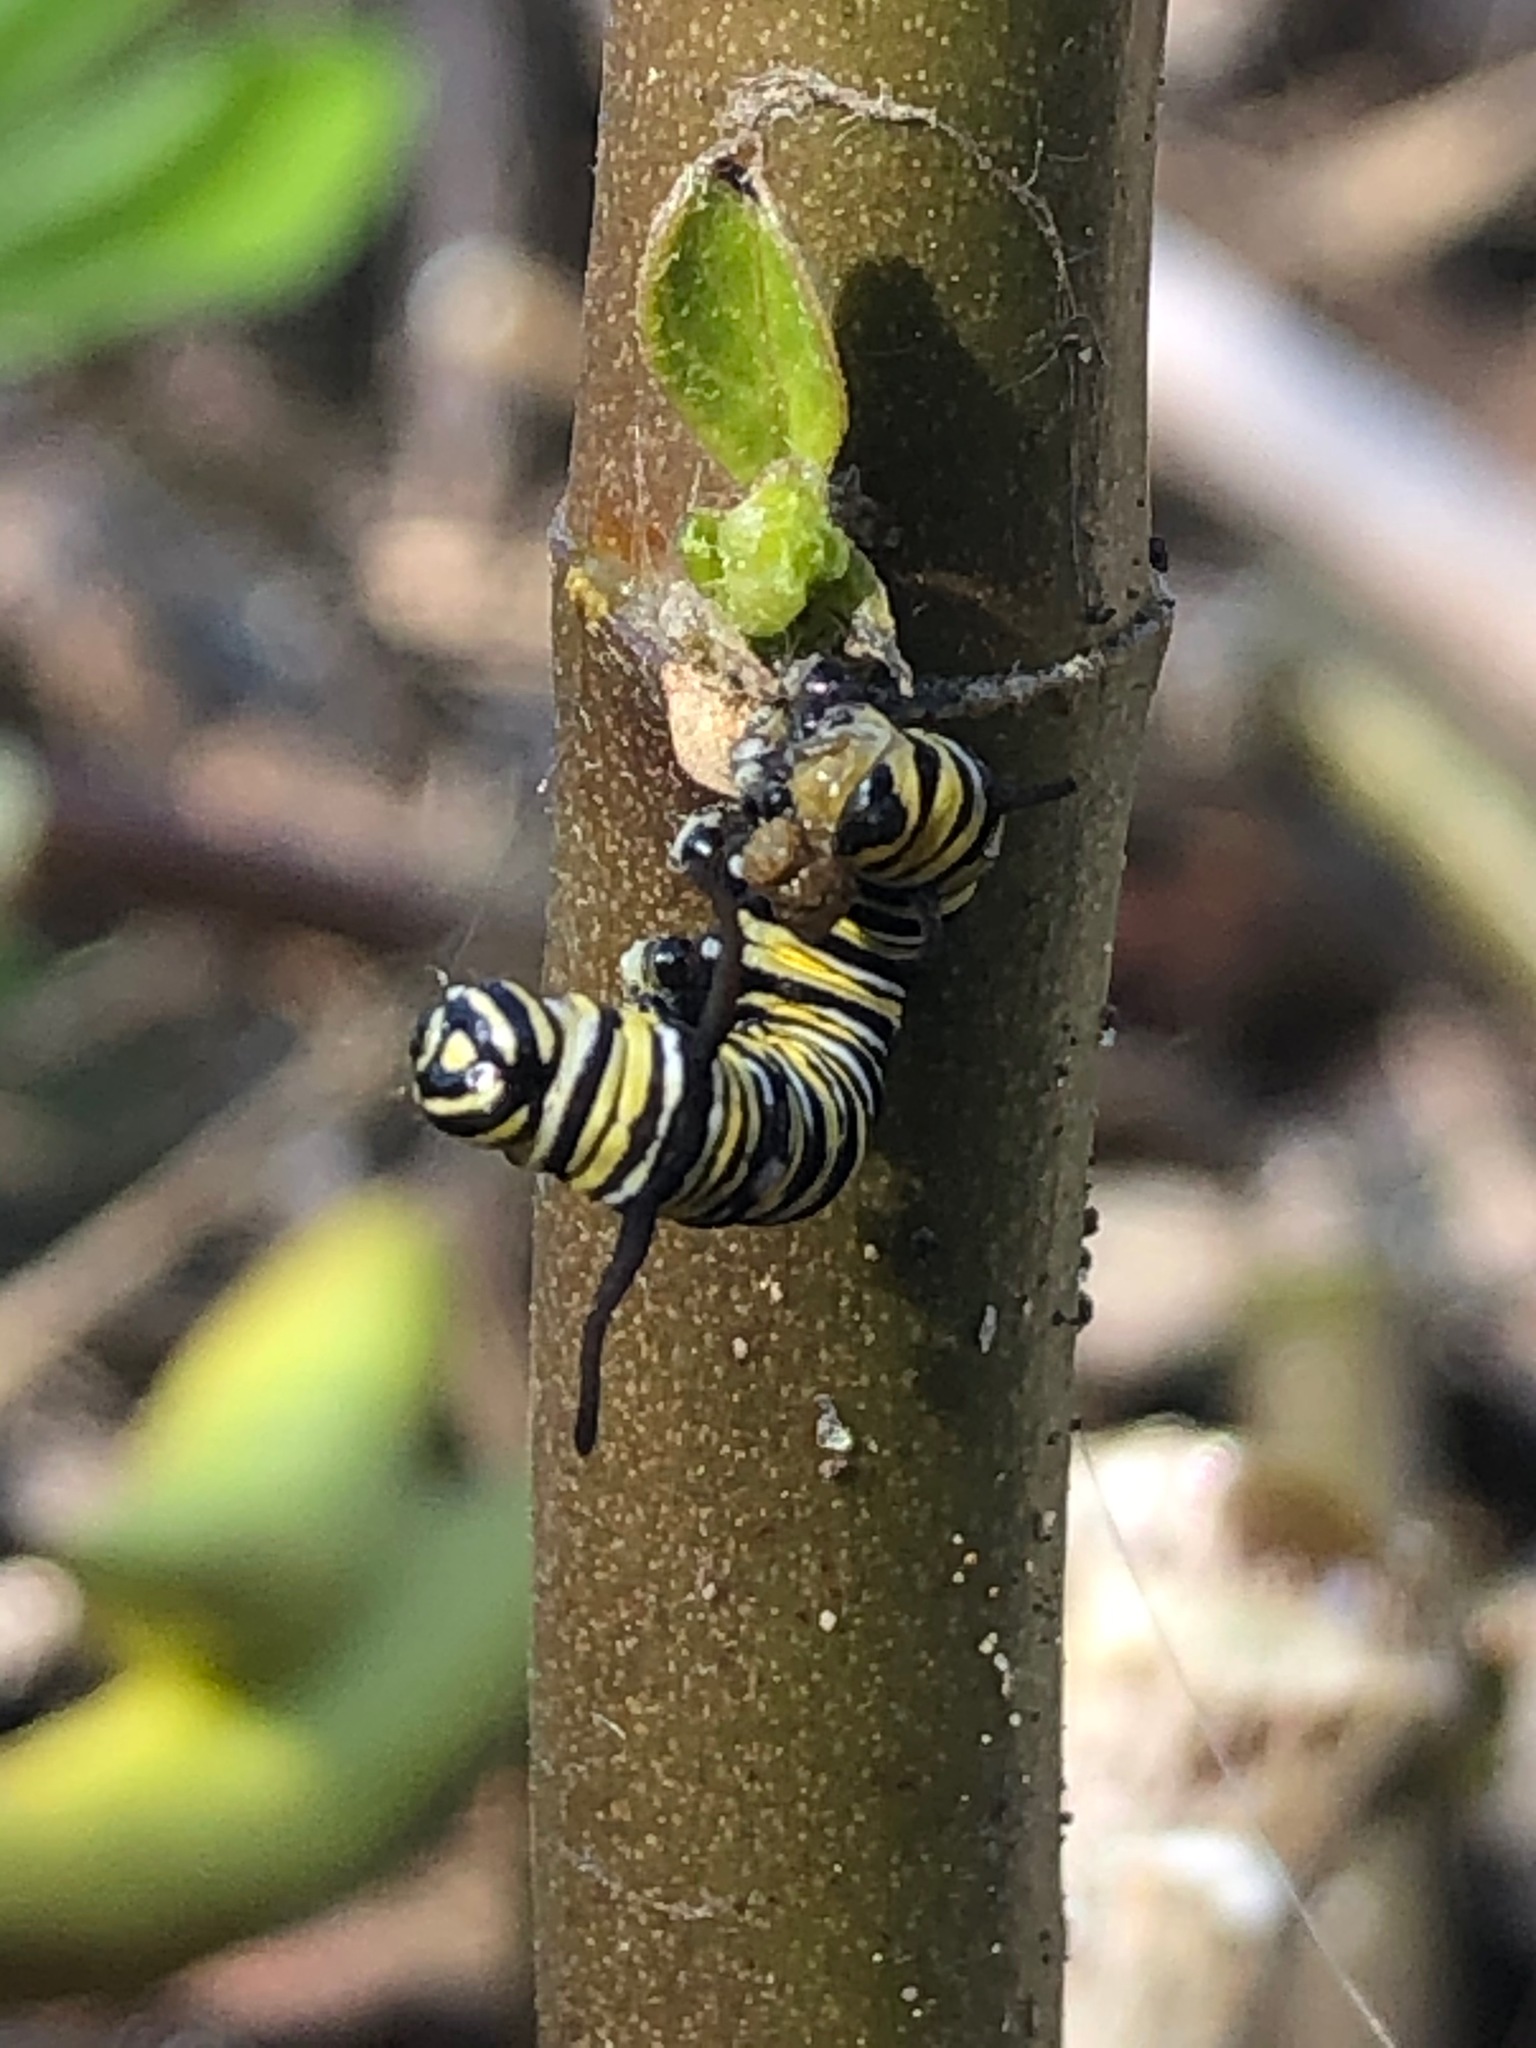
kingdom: Animalia
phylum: Arthropoda
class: Insecta
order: Lepidoptera
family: Nymphalidae
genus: Danaus
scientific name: Danaus plexippus
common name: Monarch
